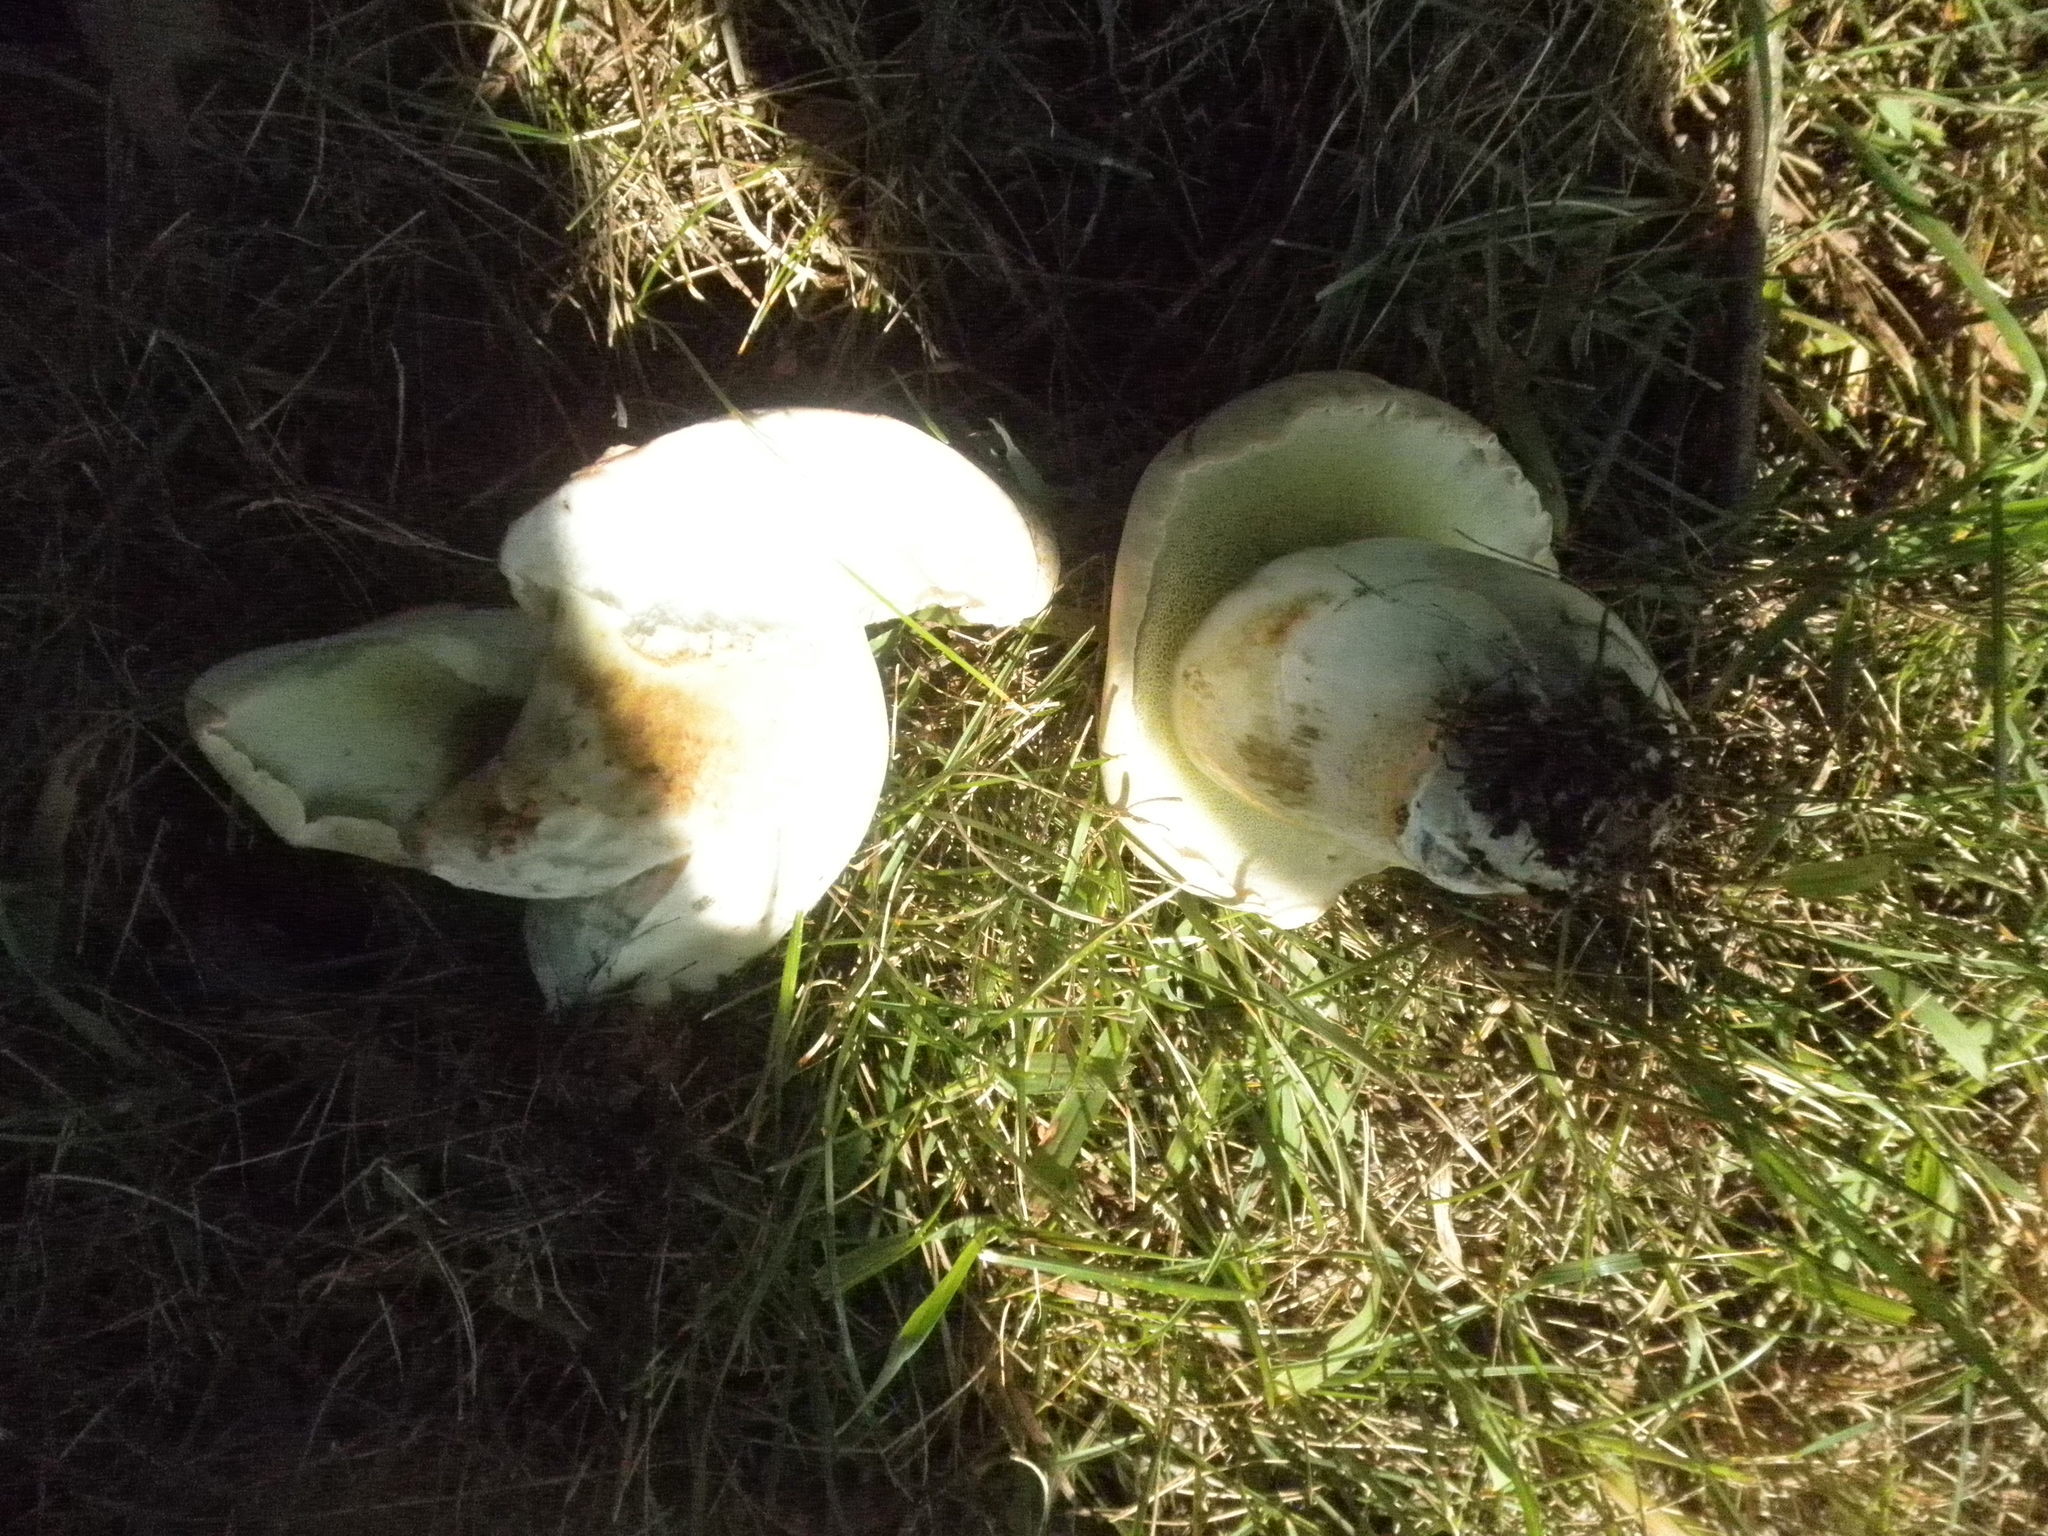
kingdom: Fungi
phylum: Basidiomycota
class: Agaricomycetes
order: Boletales
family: Boletaceae
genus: Imleria
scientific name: Imleria pallida
